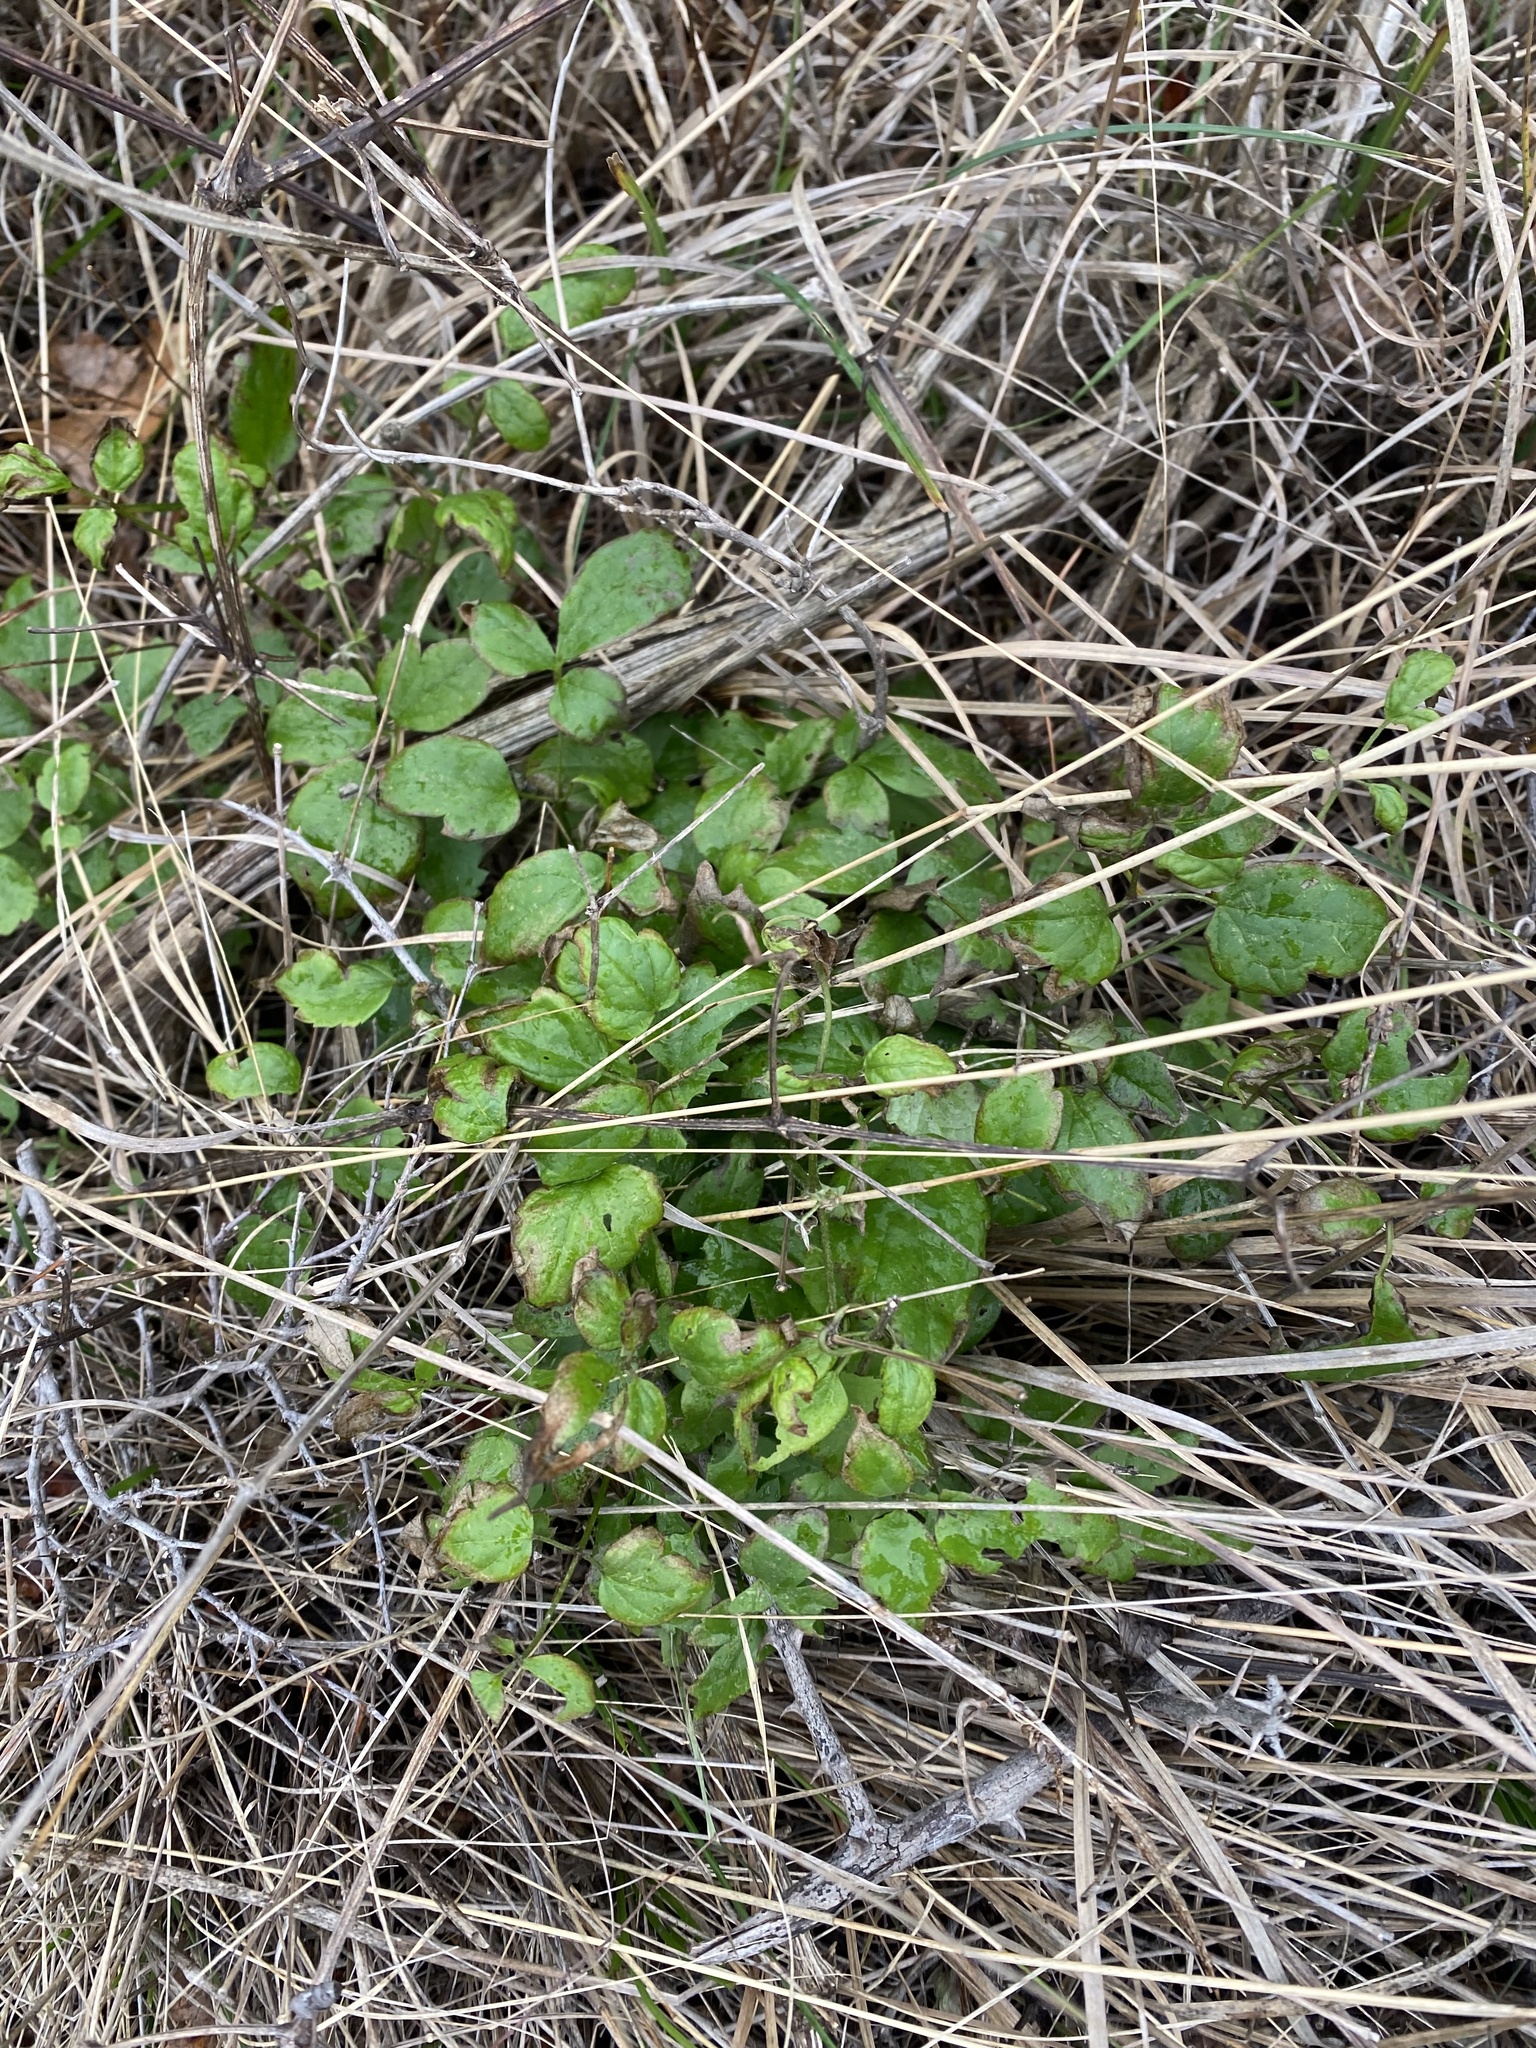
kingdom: Plantae
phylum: Tracheophyta
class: Magnoliopsida
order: Ranunculales
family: Ranunculaceae
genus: Clematis
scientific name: Clematis vitalba
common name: Evergreen clematis
